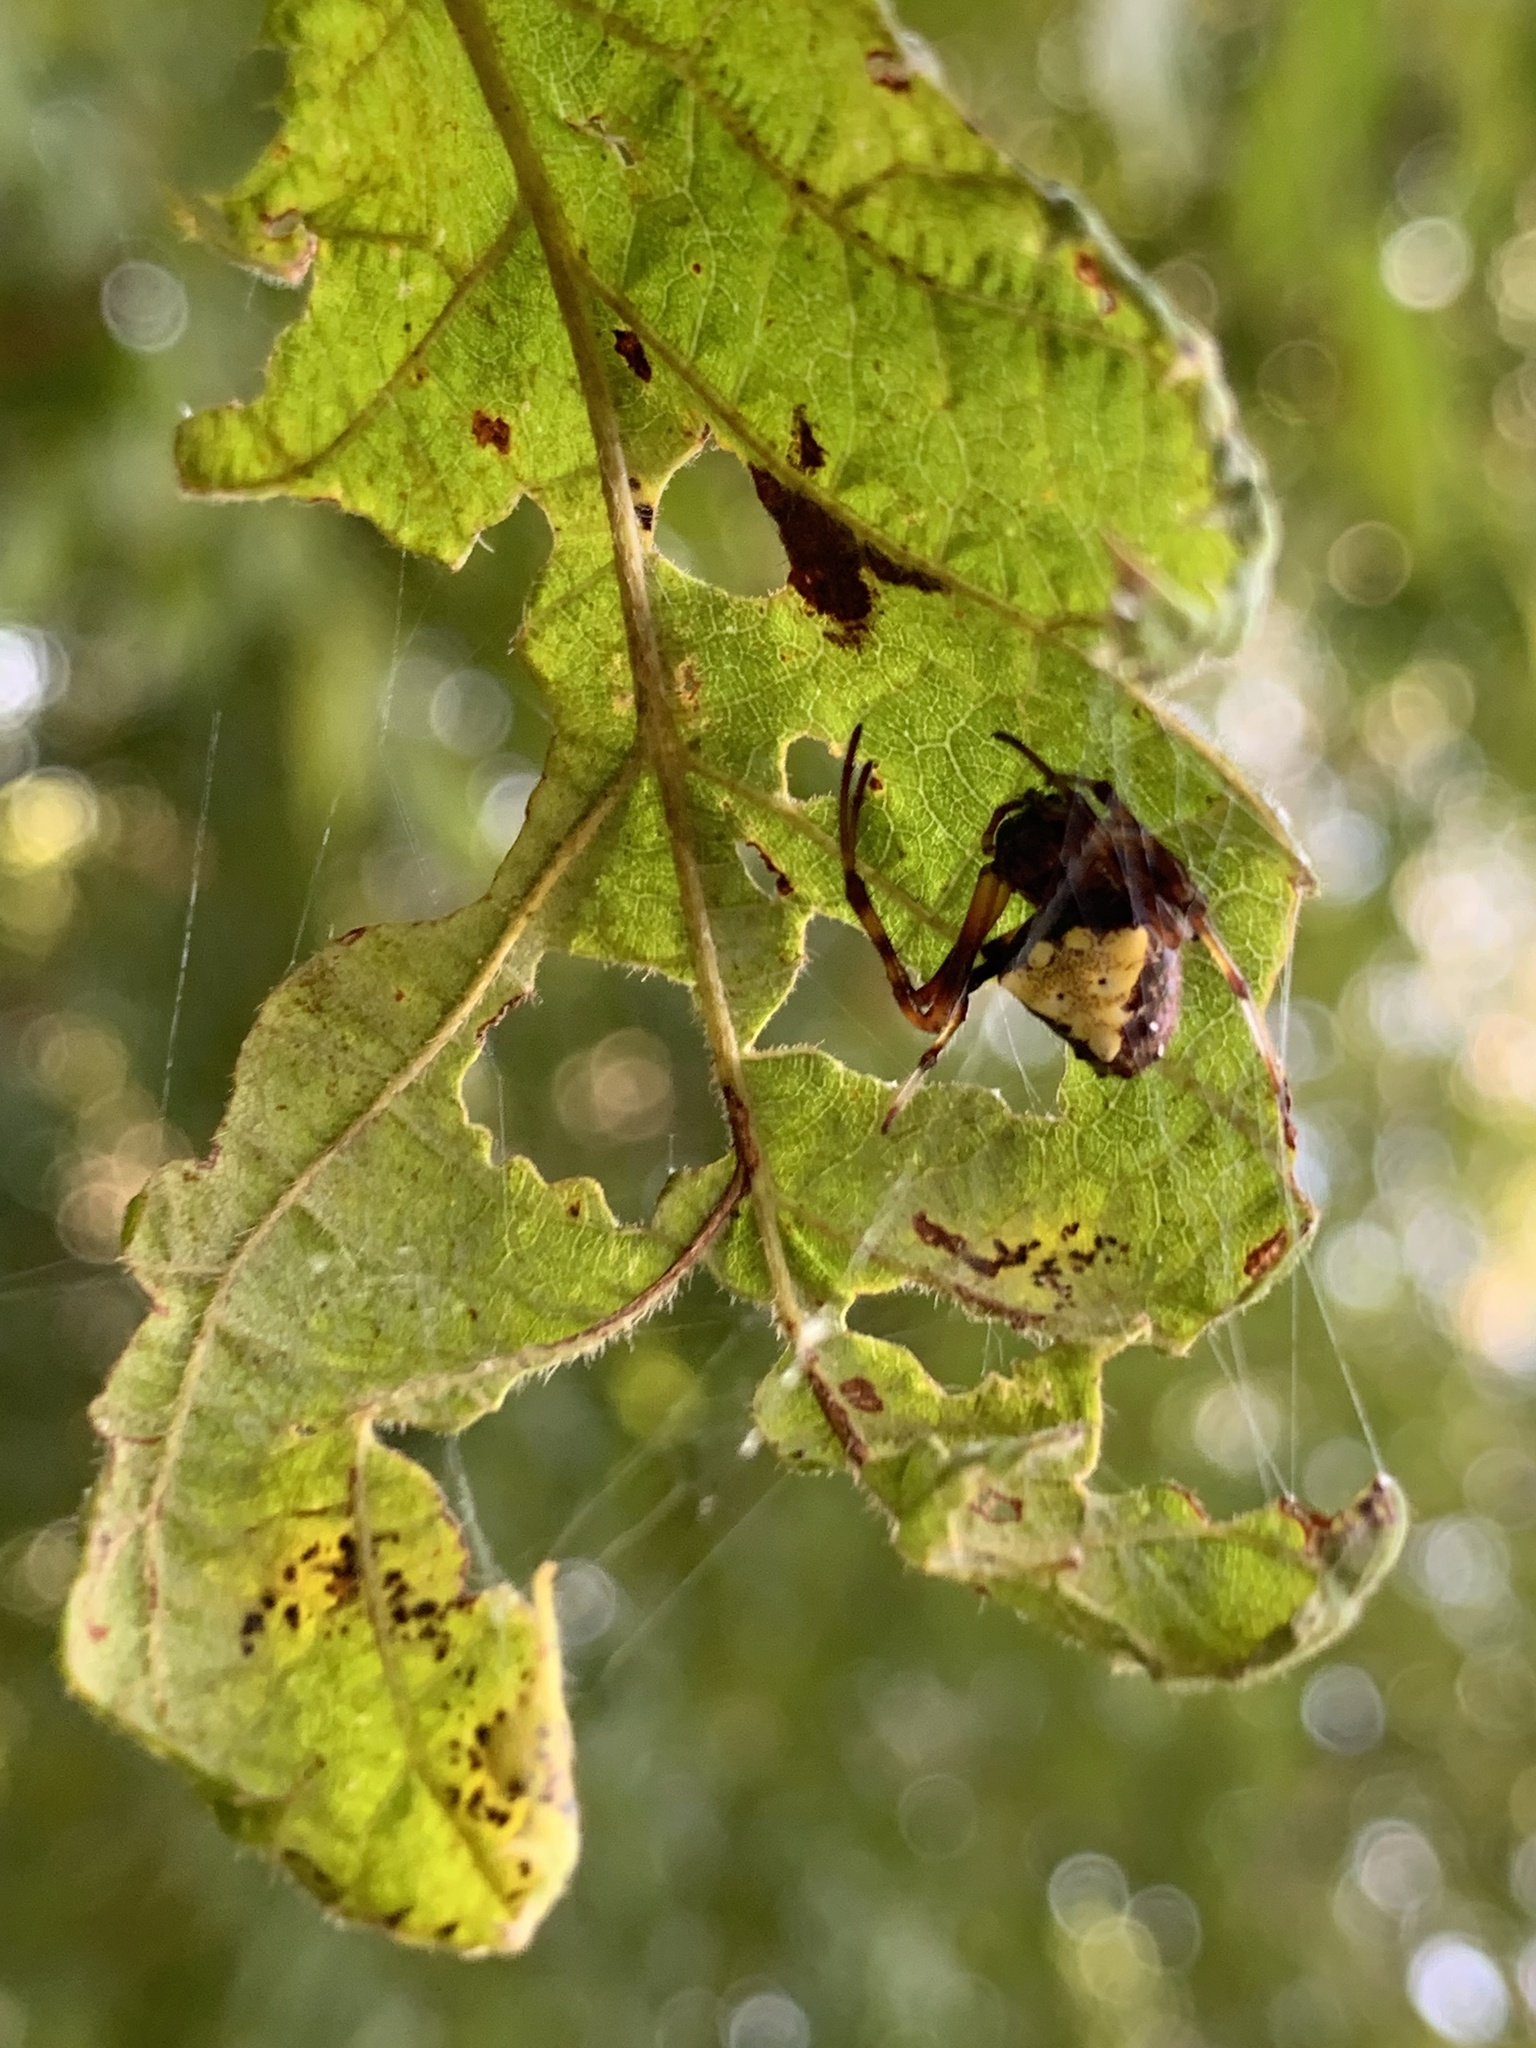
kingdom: Animalia
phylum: Arthropoda
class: Arachnida
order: Araneae
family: Araneidae
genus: Verrucosa
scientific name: Verrucosa arenata
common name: Orb weavers
